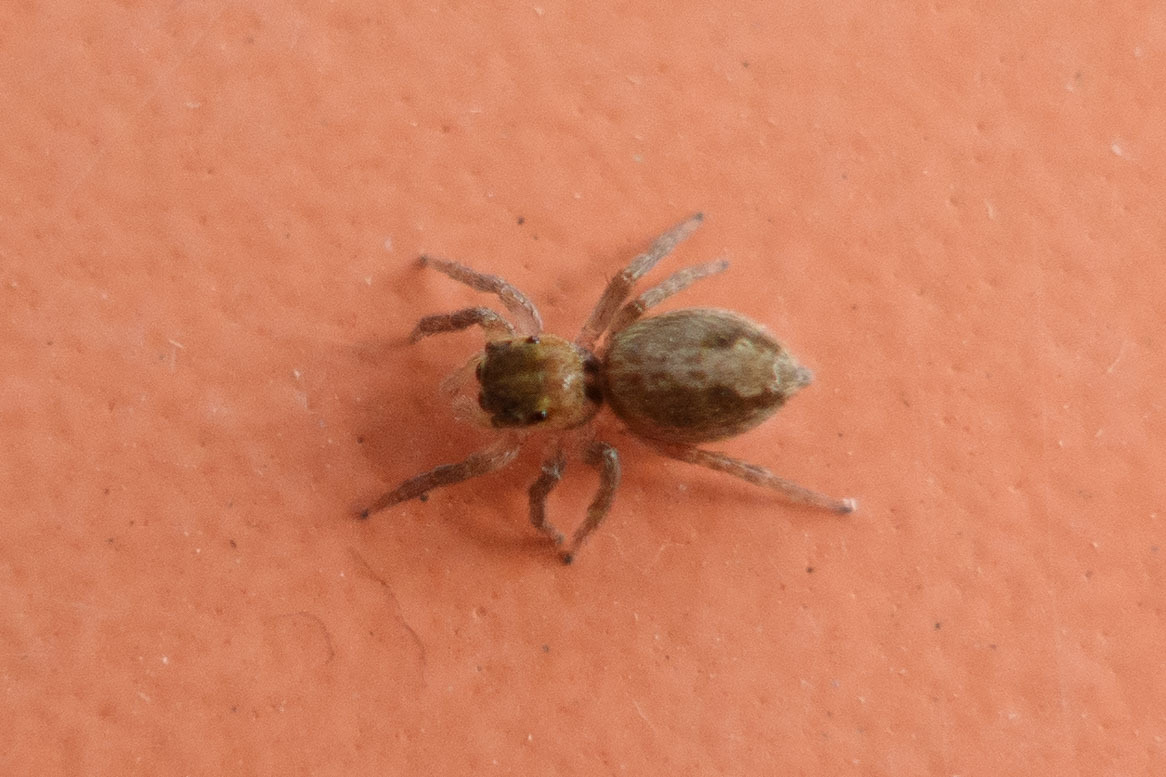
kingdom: Animalia
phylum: Arthropoda
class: Arachnida
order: Araneae
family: Salticidae
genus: Hasarius
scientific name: Hasarius adansoni
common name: Jumping spider
